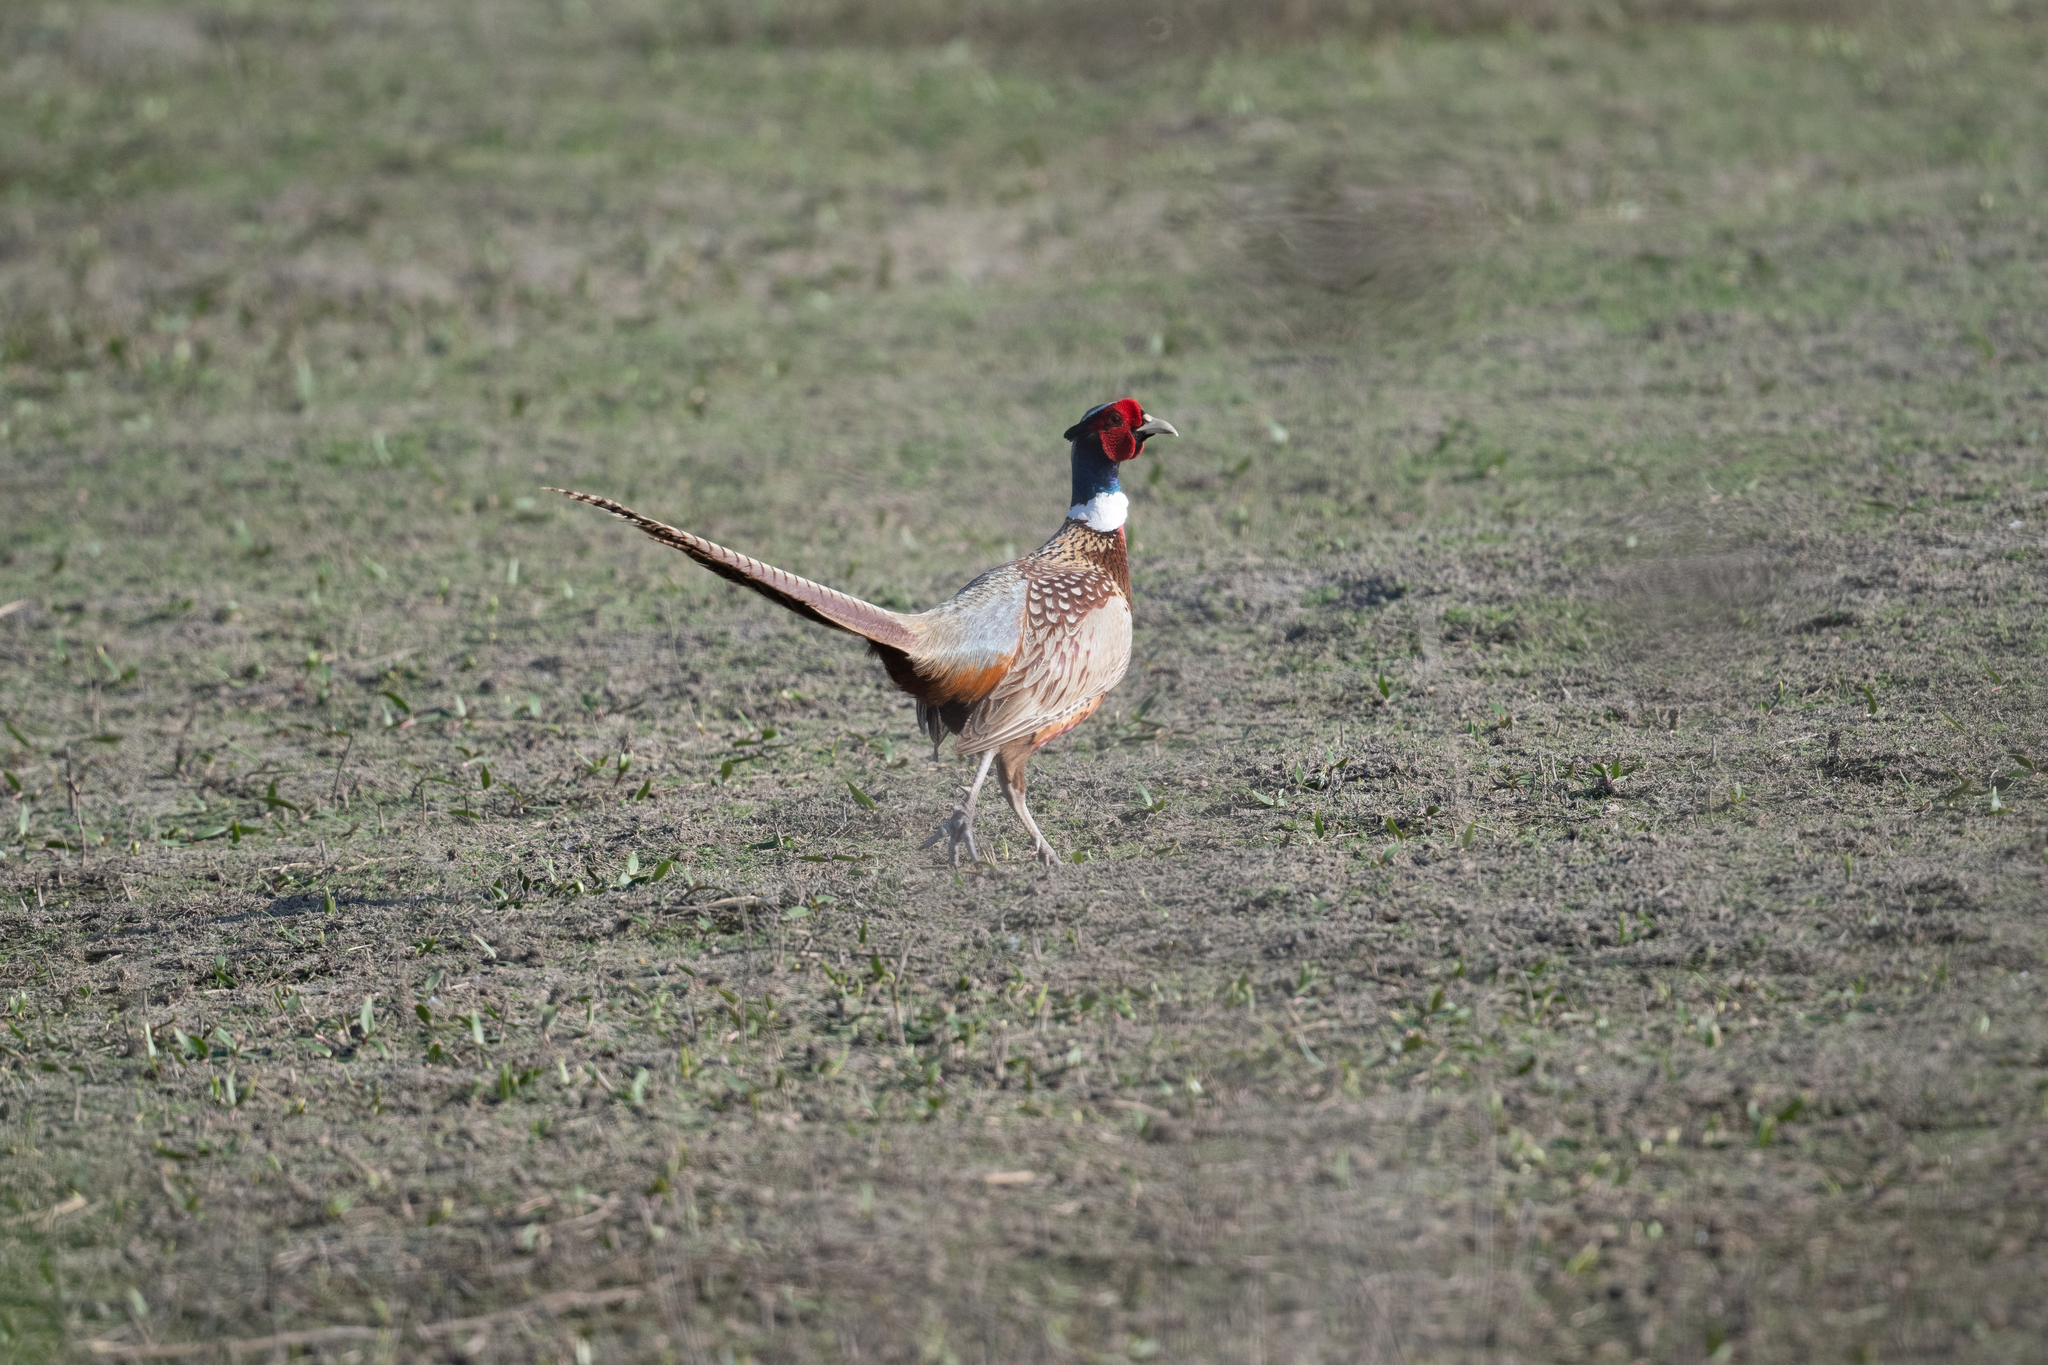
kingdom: Animalia
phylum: Chordata
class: Aves
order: Galliformes
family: Phasianidae
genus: Phasianus
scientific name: Phasianus colchicus
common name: Common pheasant
